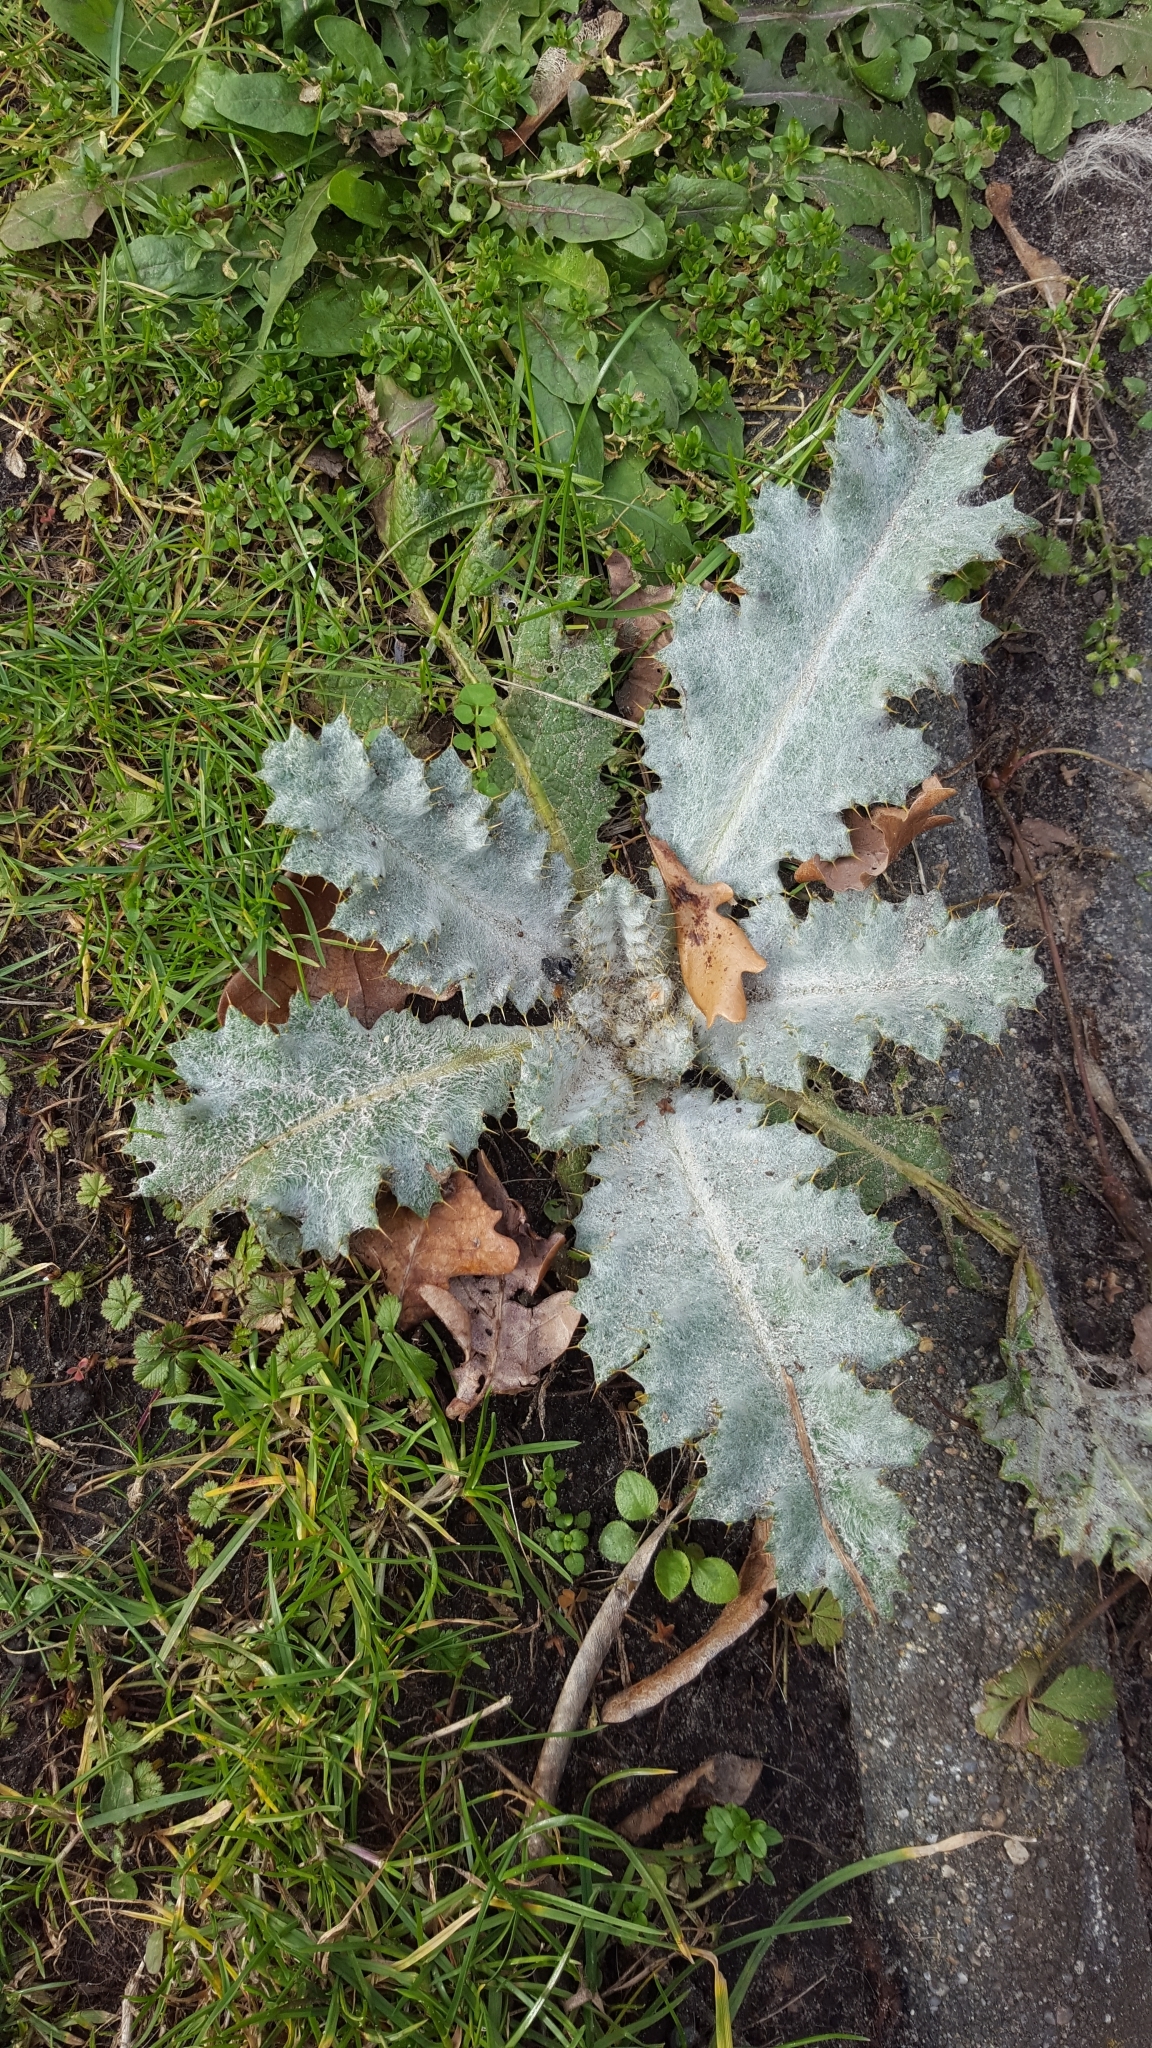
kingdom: Plantae
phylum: Tracheophyta
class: Magnoliopsida
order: Asterales
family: Asteraceae
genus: Onopordum
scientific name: Onopordum acanthium
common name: Scotch thistle
